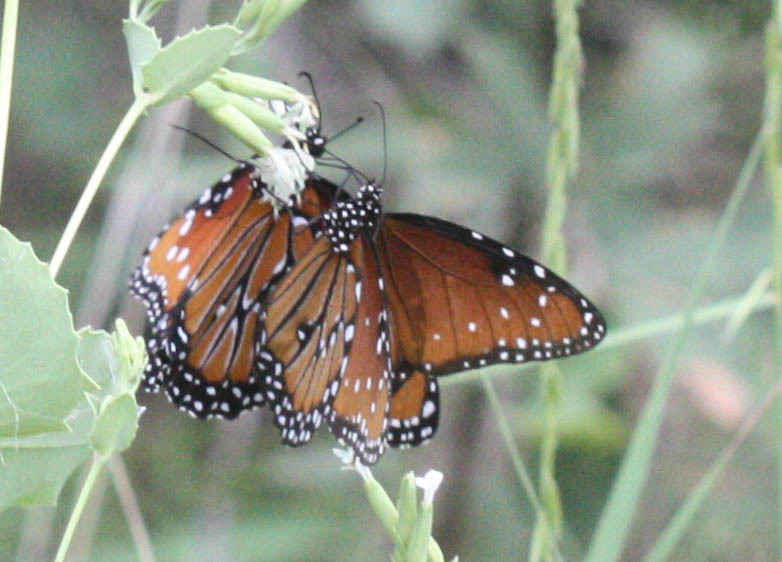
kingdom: Animalia
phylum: Arthropoda
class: Insecta
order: Lepidoptera
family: Nymphalidae
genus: Danaus
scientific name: Danaus gilippus
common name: Queen
